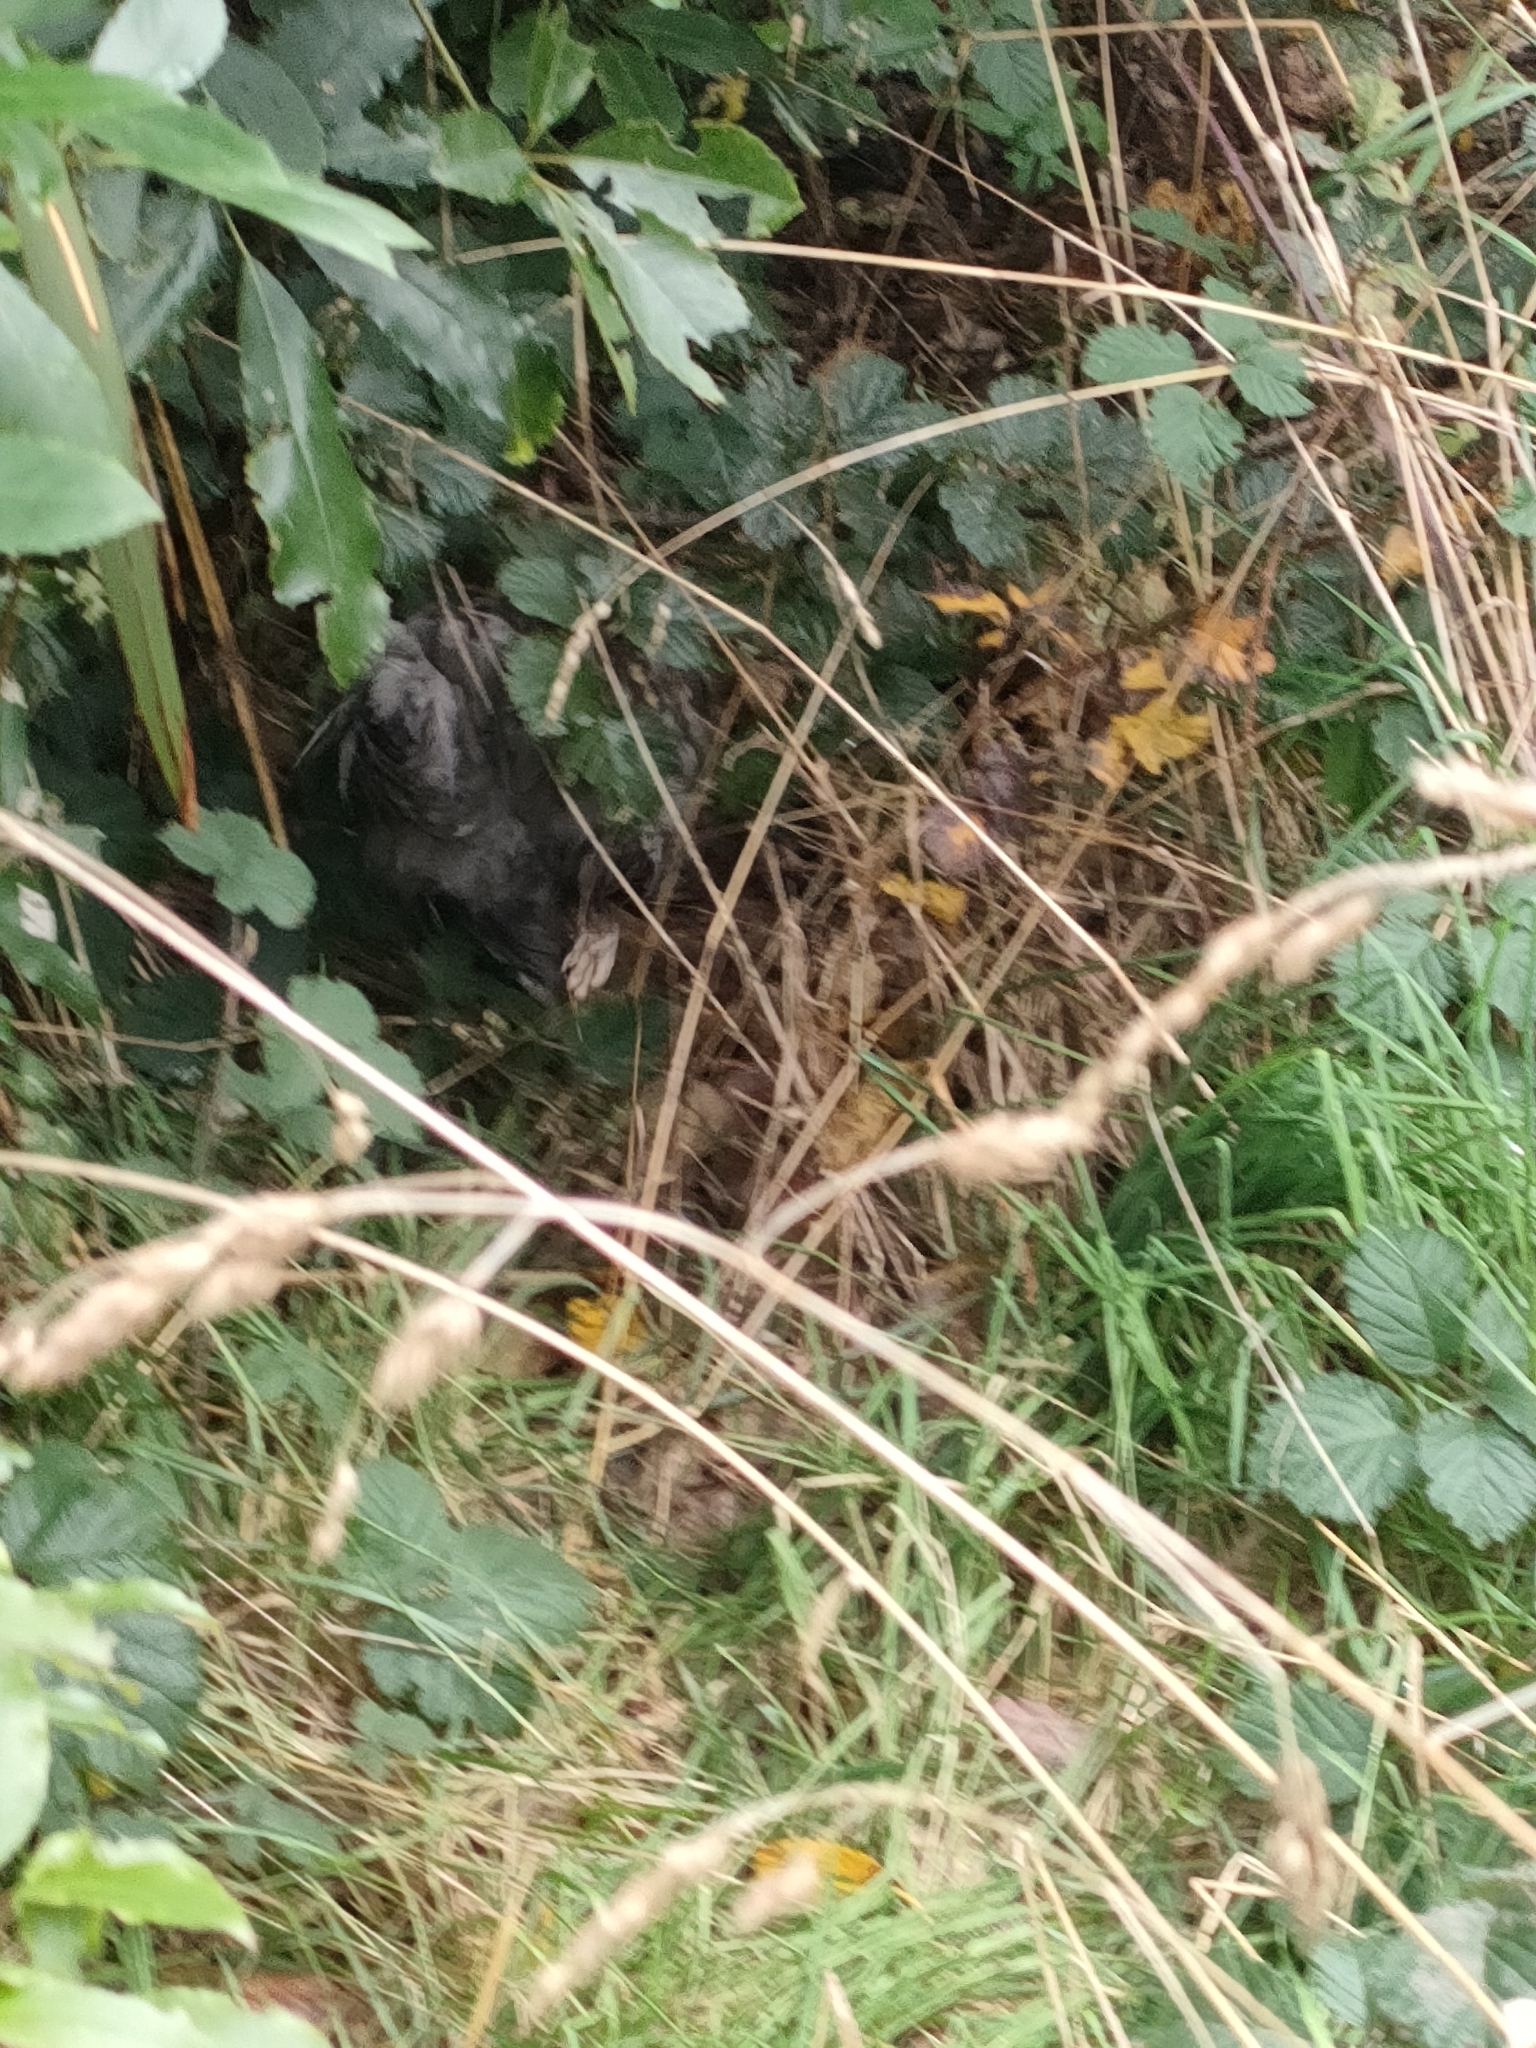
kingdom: Animalia
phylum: Chordata
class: Aves
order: Galliformes
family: Phasianidae
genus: Gallus
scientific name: Gallus gallus
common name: Red junglefowl
